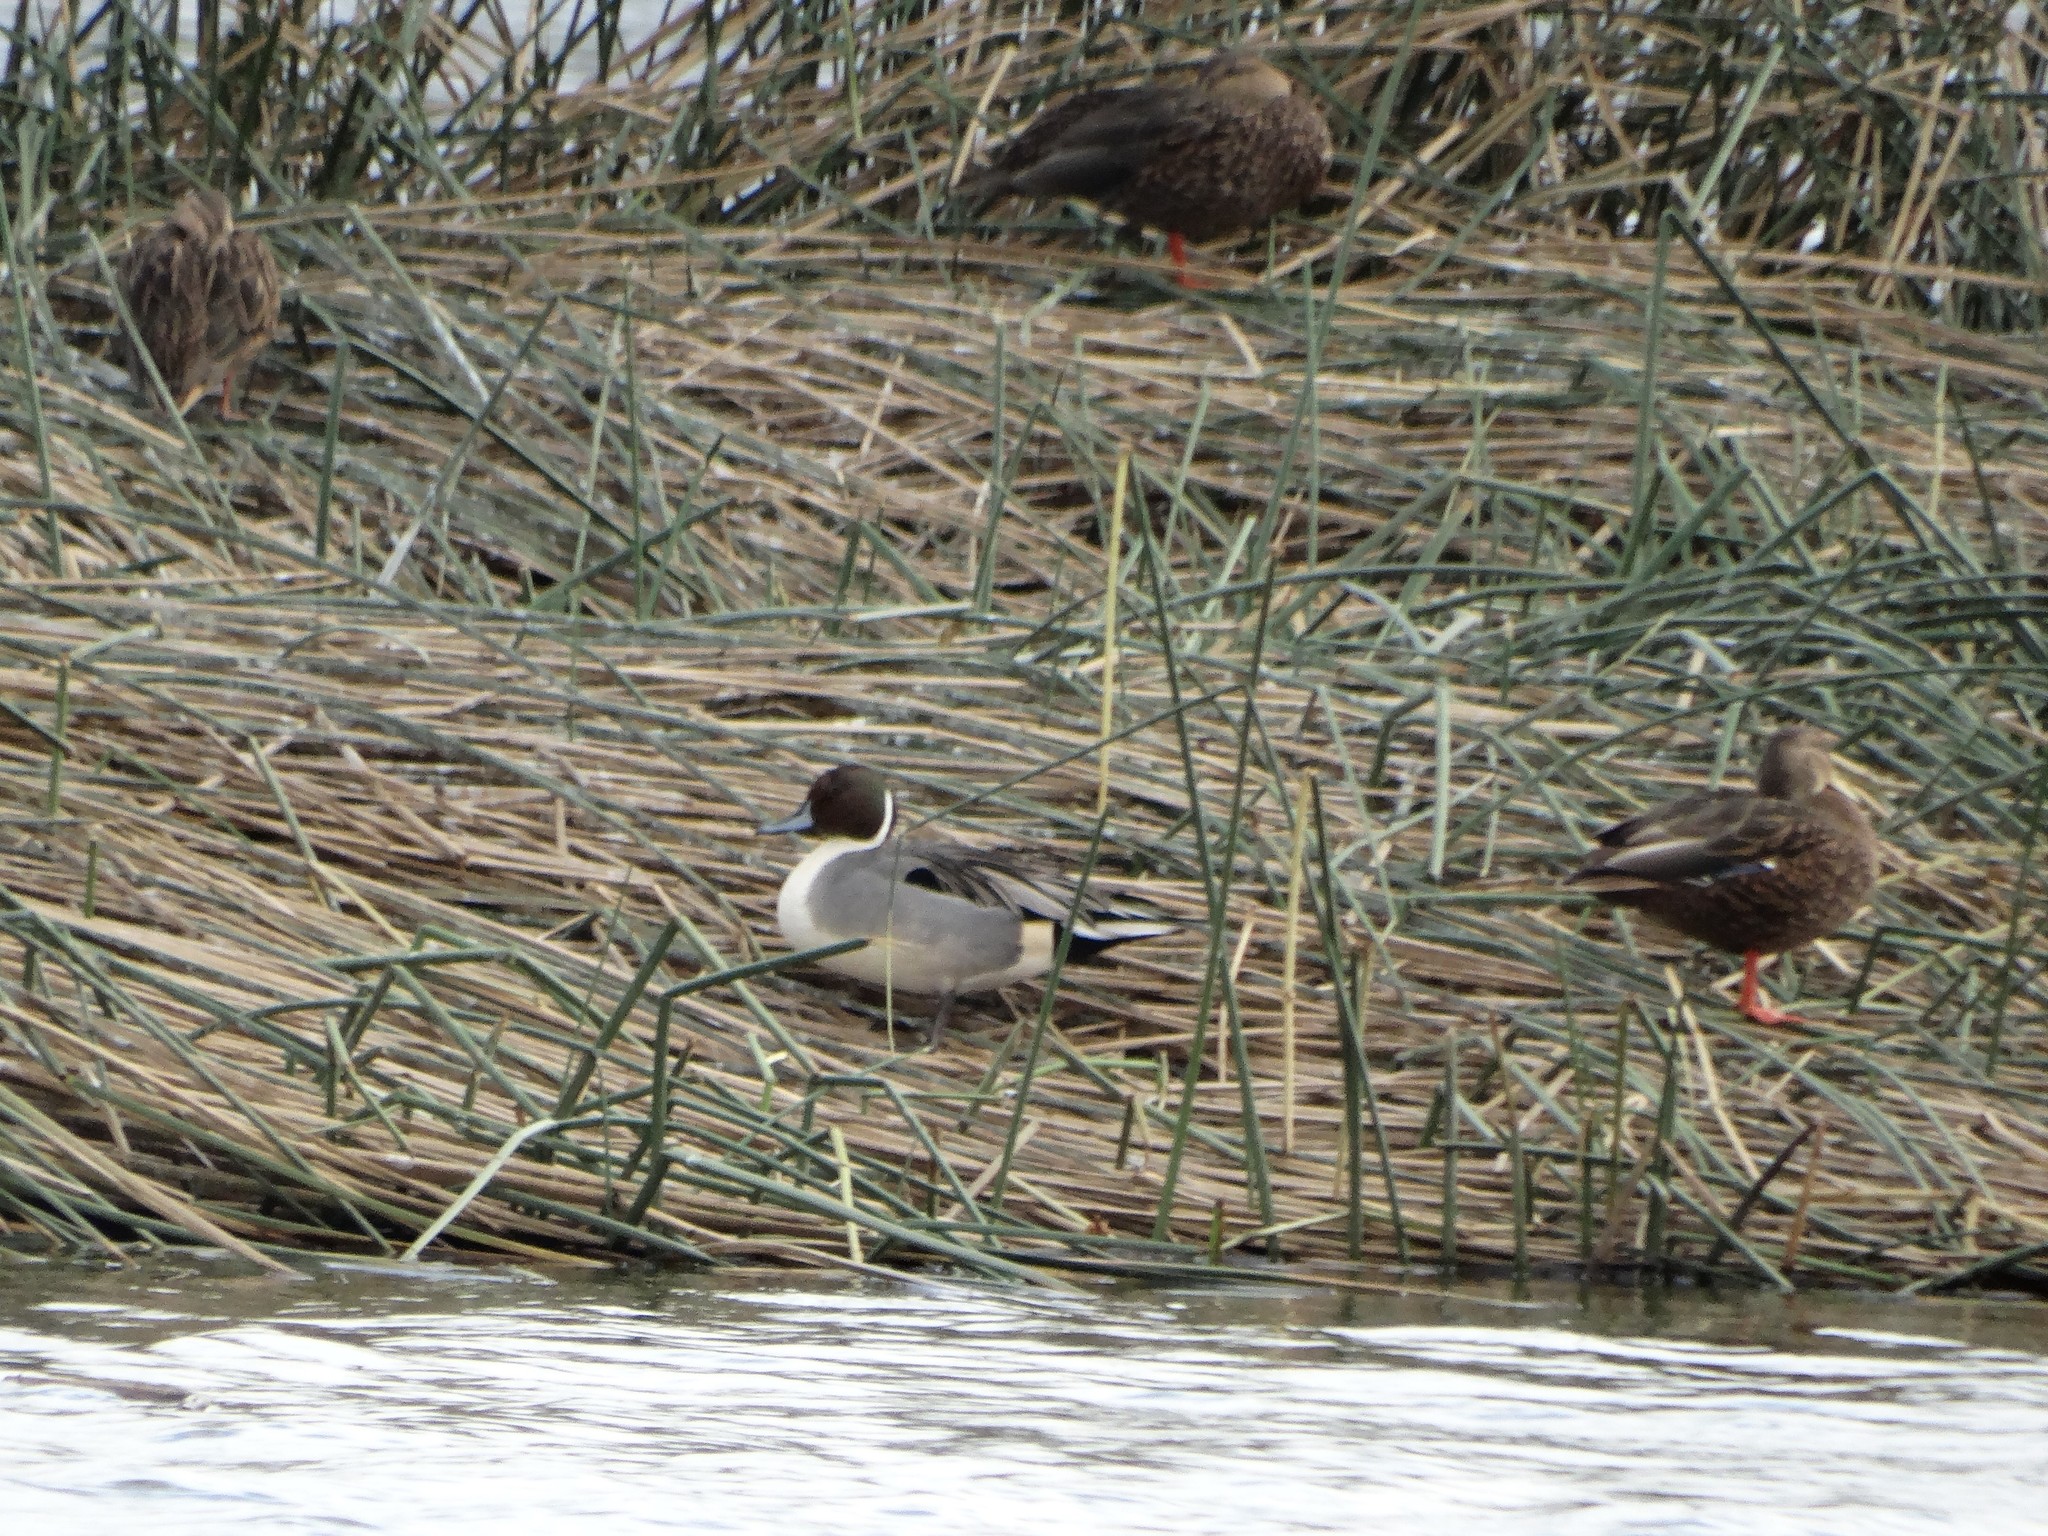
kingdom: Animalia
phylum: Chordata
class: Aves
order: Anseriformes
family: Anatidae
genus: Anas
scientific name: Anas acuta
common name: Northern pintail
